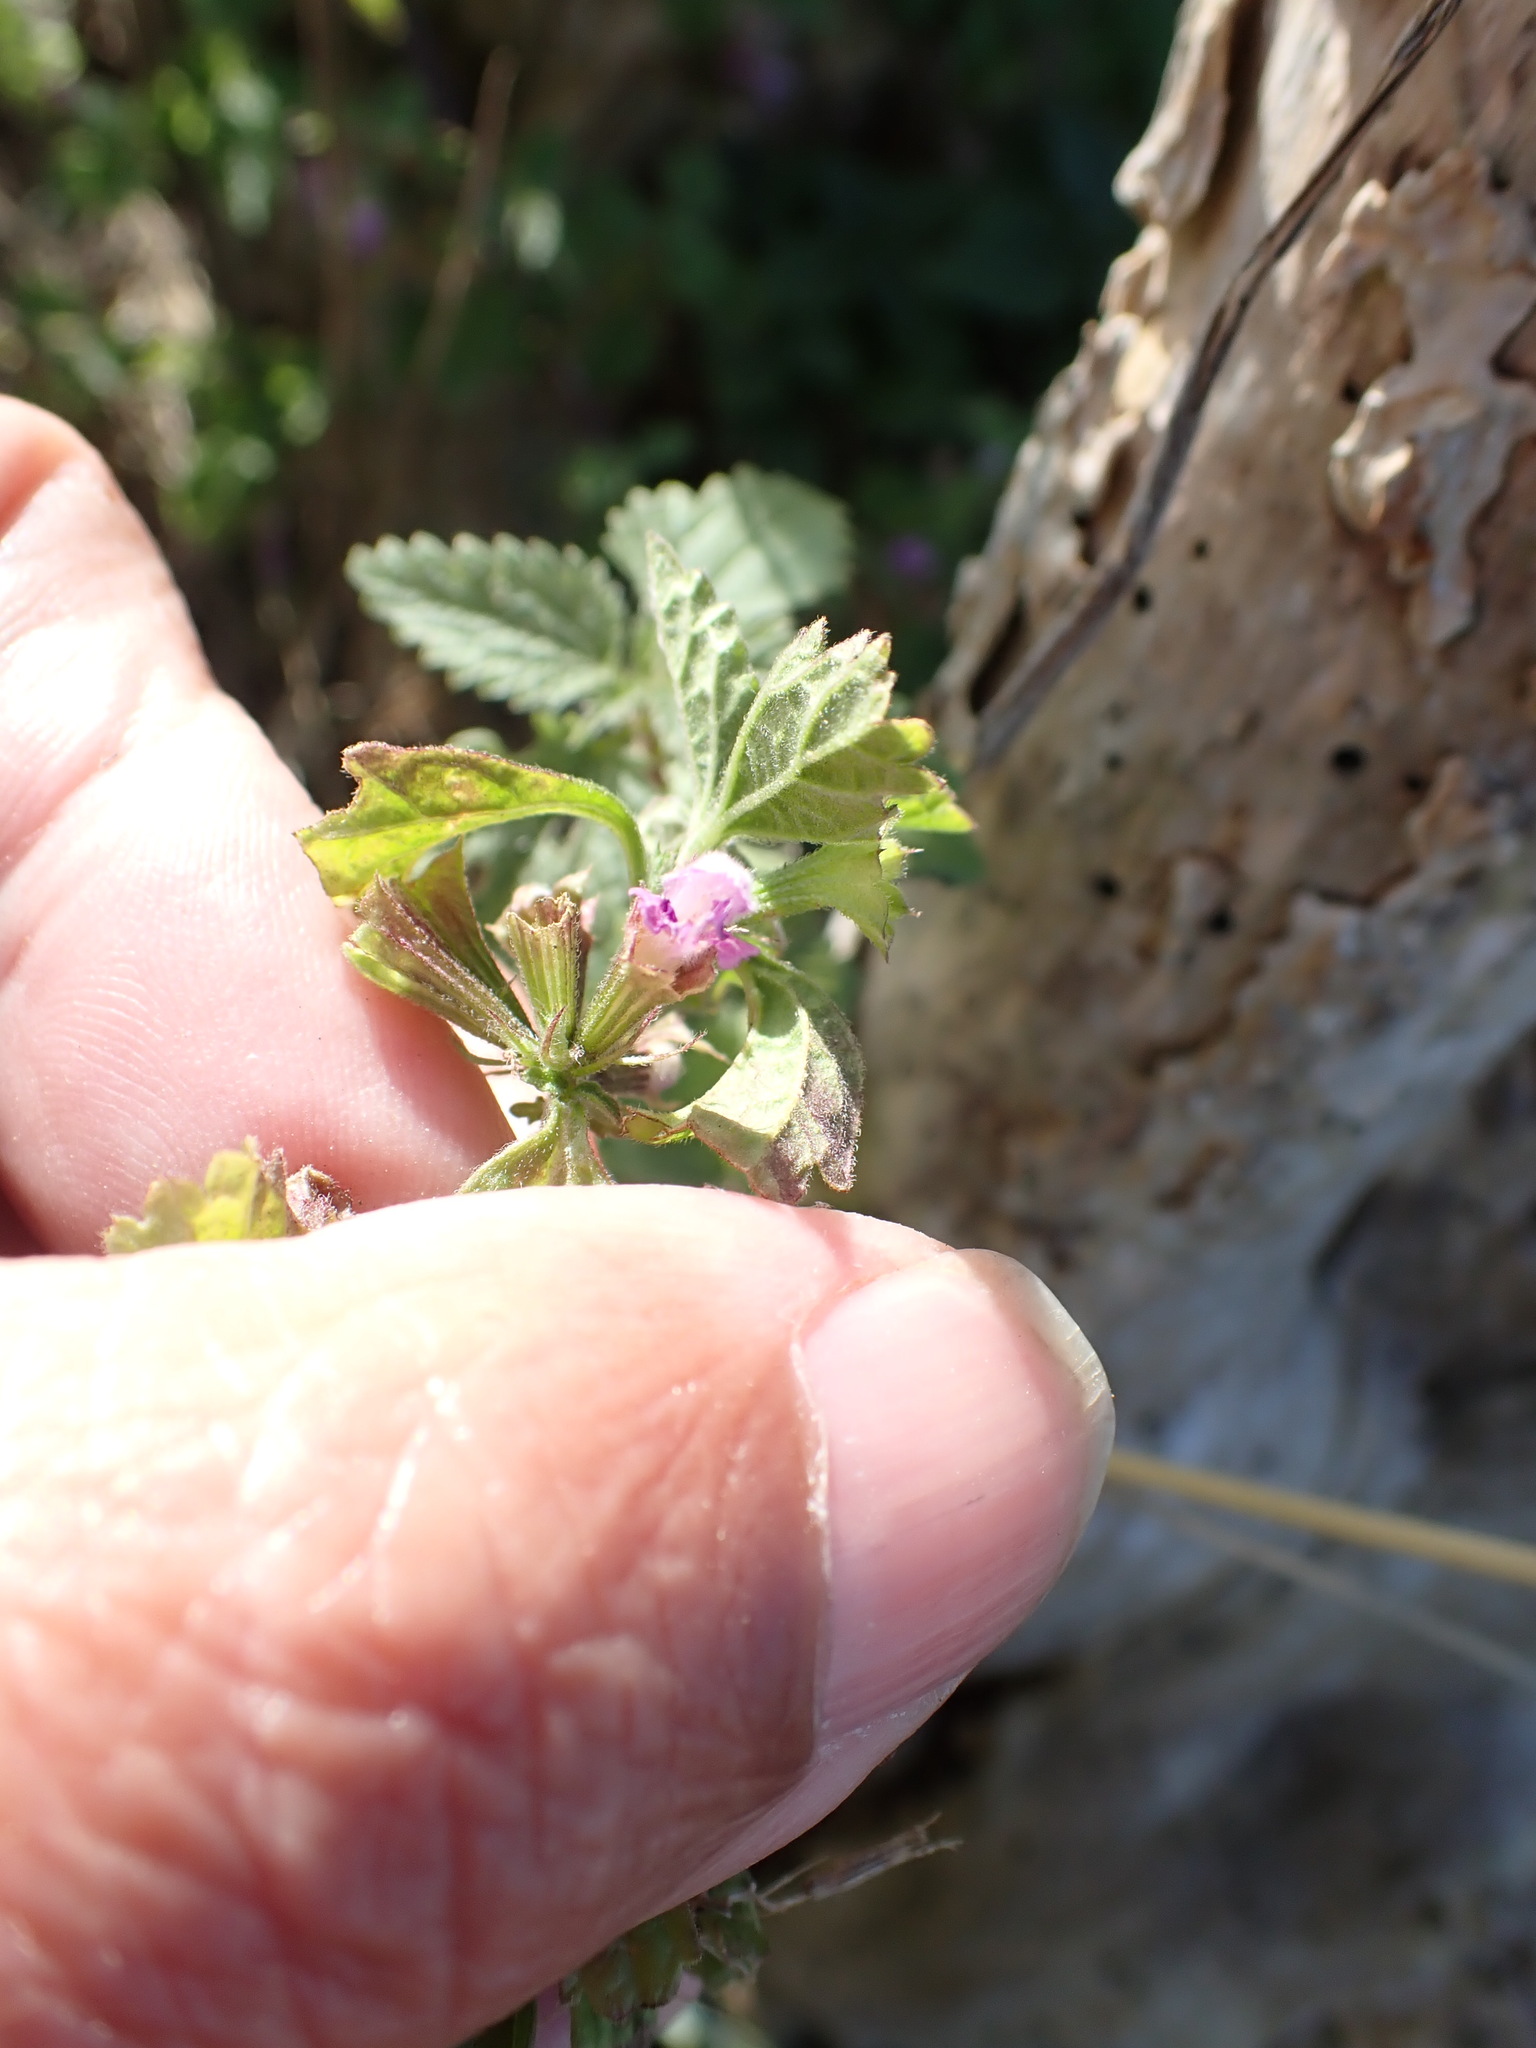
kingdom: Plantae
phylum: Tracheophyta
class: Magnoliopsida
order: Lamiales
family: Lamiaceae
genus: Ballota
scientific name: Ballota nigra
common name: Black horehound
